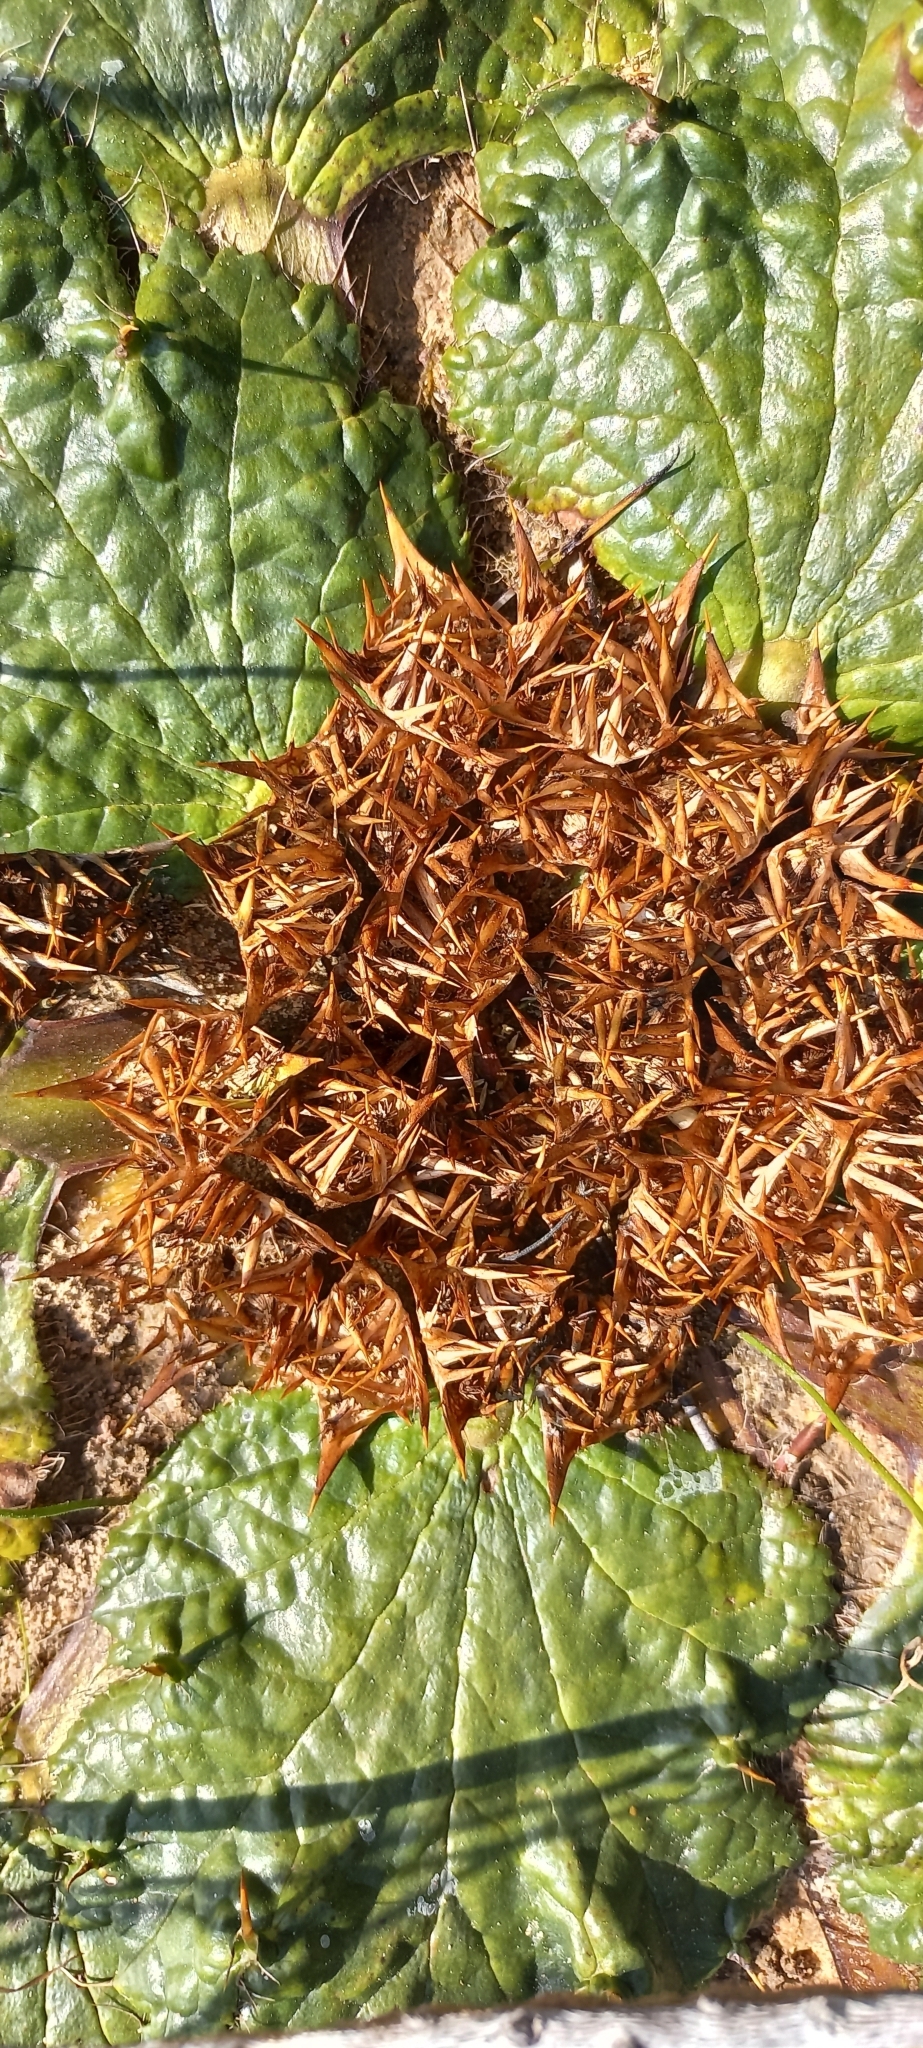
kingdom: Plantae
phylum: Tracheophyta
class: Magnoliopsida
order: Apiales
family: Apiaceae
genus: Arctopus
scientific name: Arctopus echinatus
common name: Platdoring
